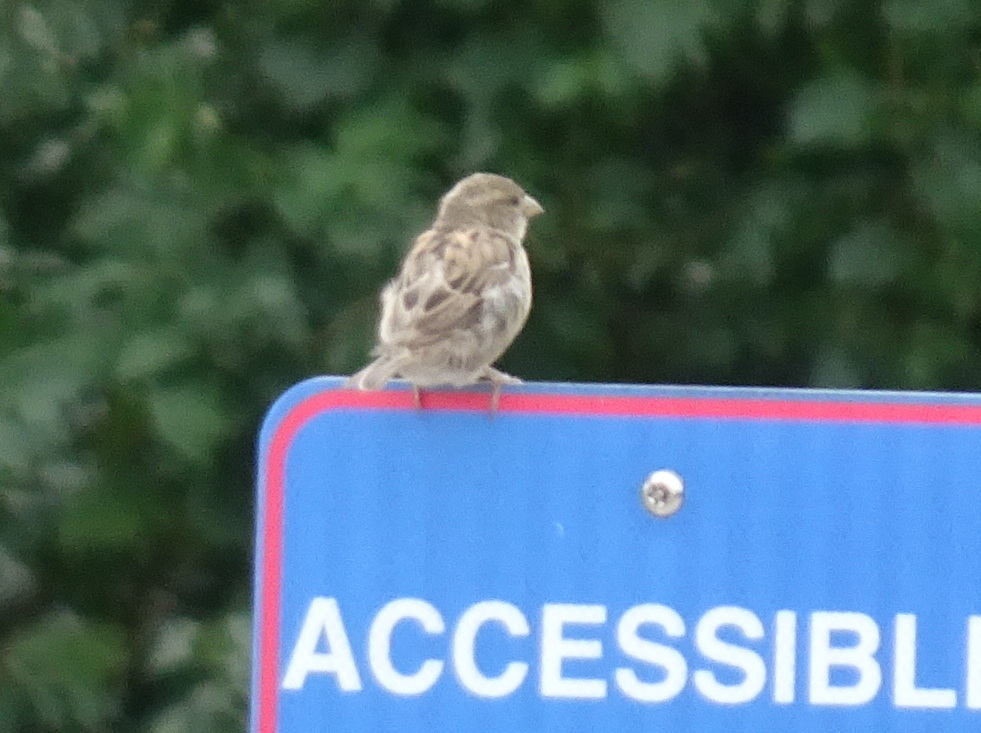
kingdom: Animalia
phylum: Chordata
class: Aves
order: Passeriformes
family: Passeridae
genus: Passer
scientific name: Passer domesticus
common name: House sparrow
